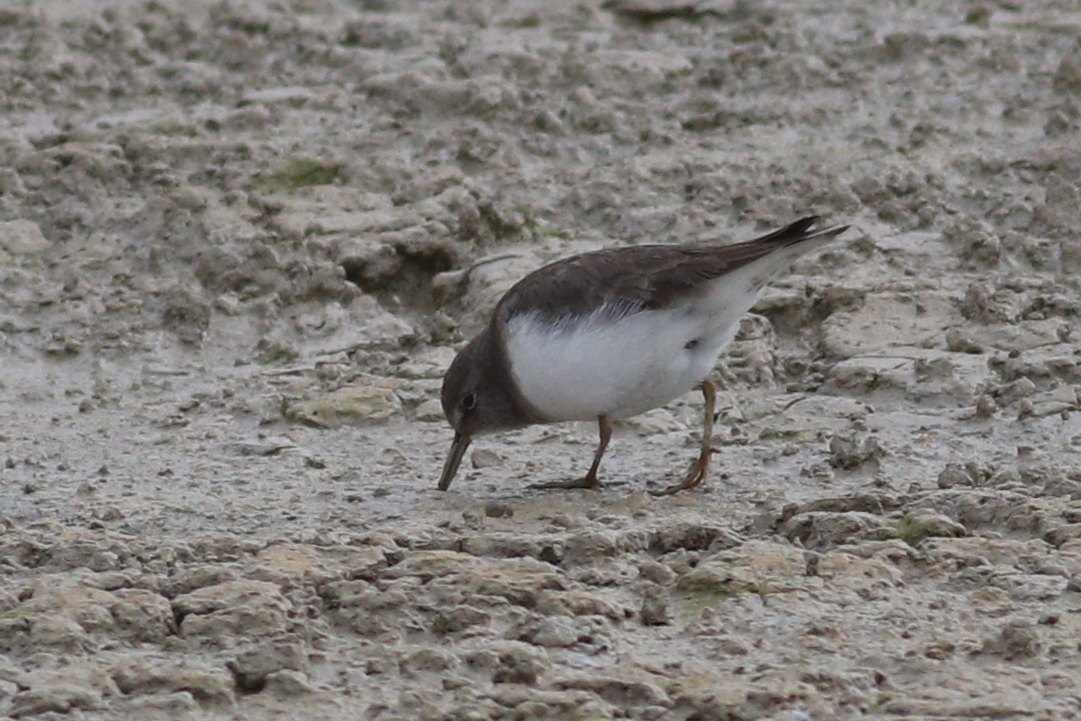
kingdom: Animalia
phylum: Chordata
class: Aves
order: Charadriiformes
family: Scolopacidae
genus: Calidris
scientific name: Calidris temminckii
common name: Temminck's stint
